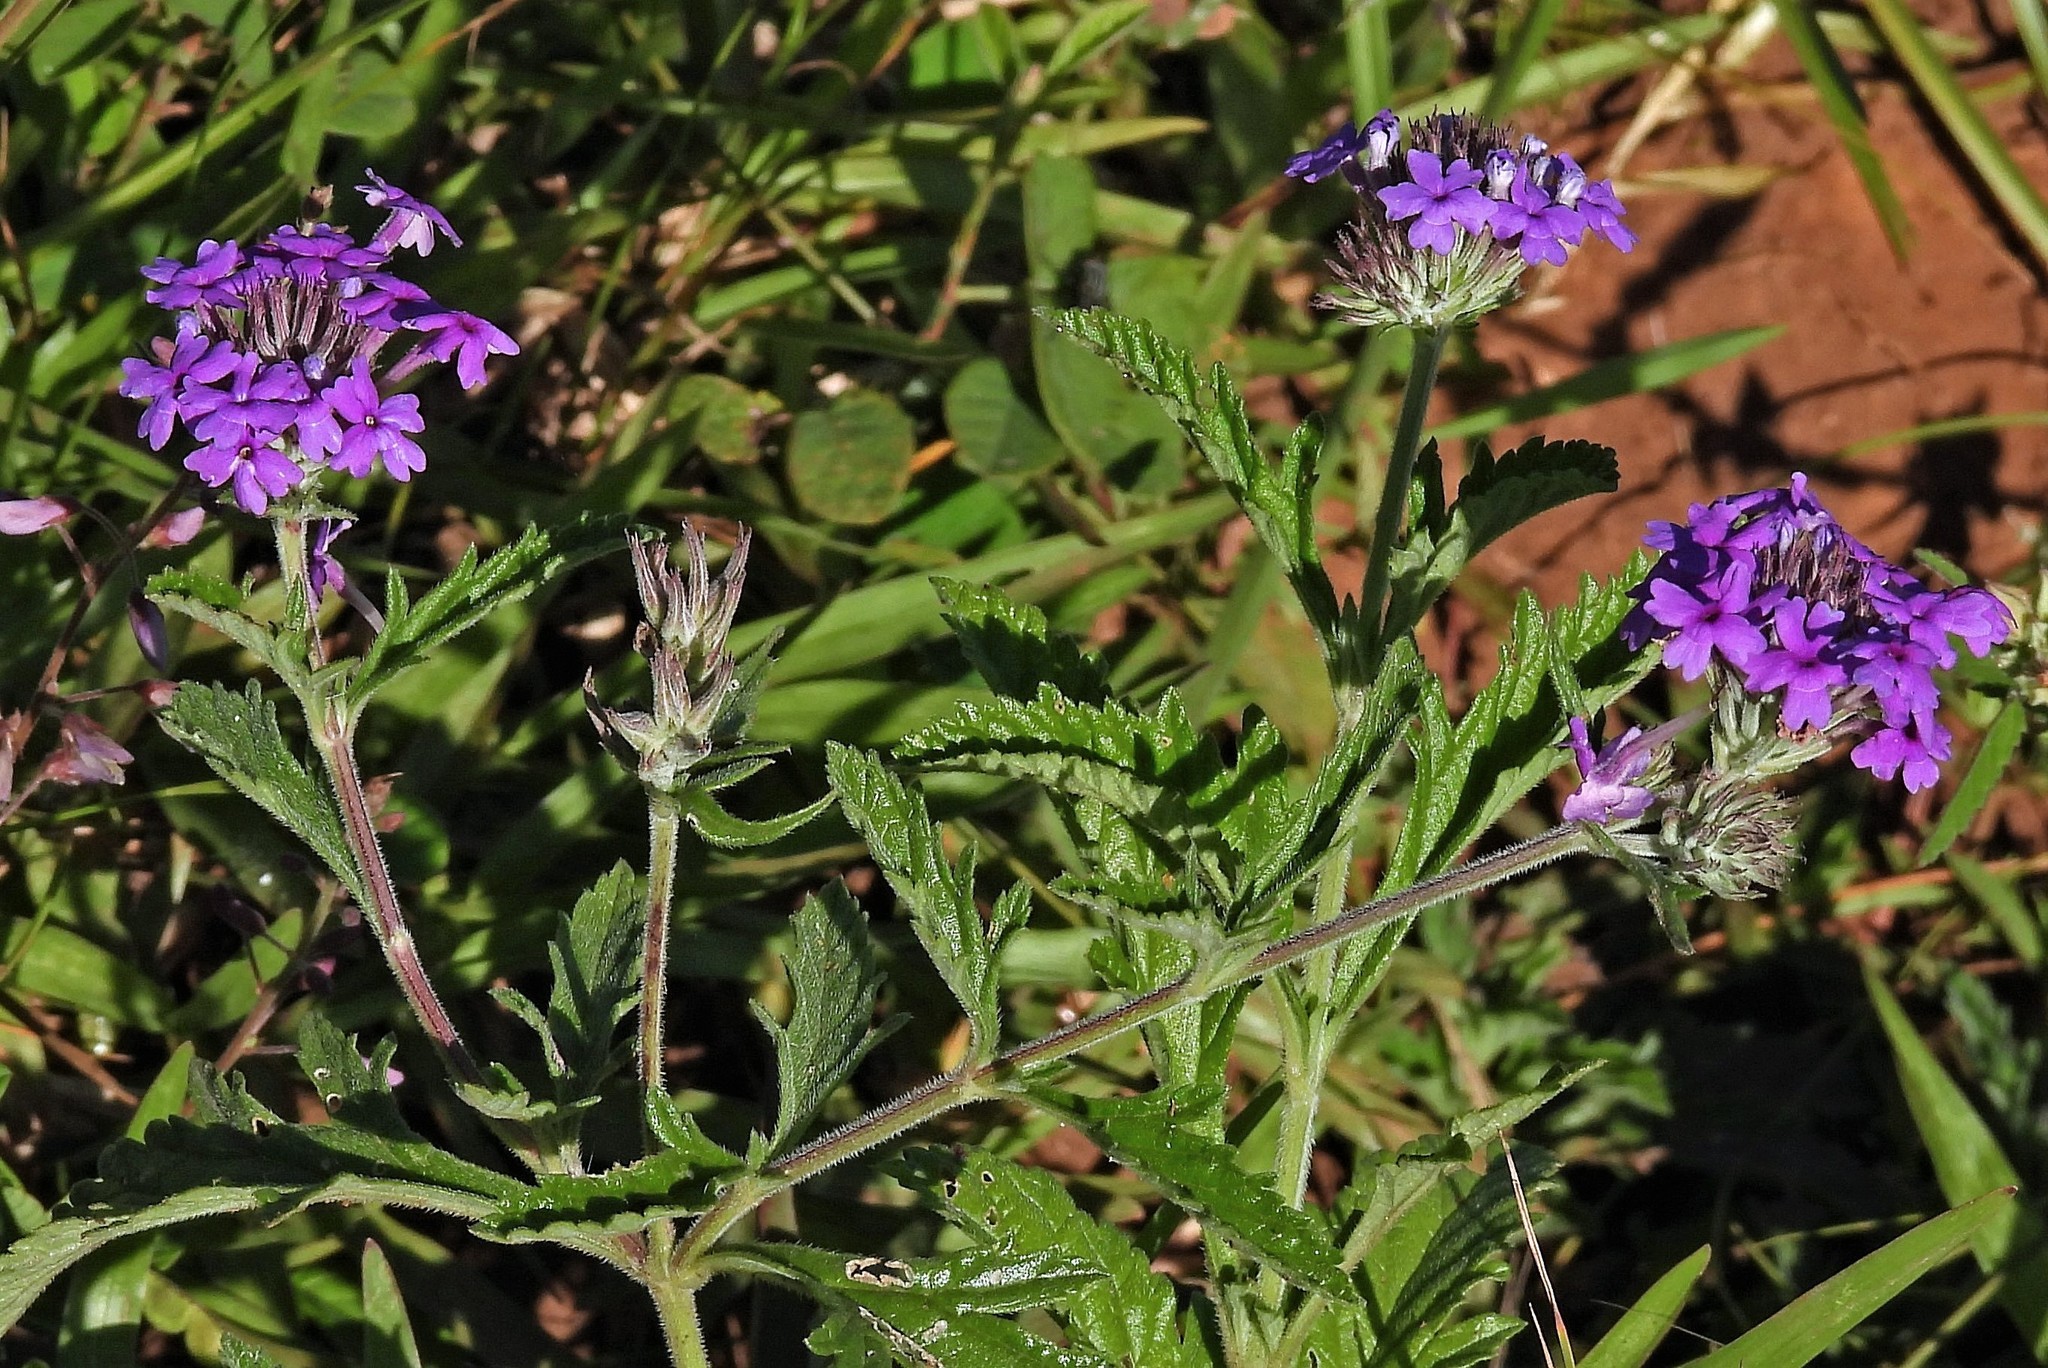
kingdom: Plantae
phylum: Tracheophyta
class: Magnoliopsida
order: Lamiales
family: Verbenaceae
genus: Verbena
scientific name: Verbena tomophylla
